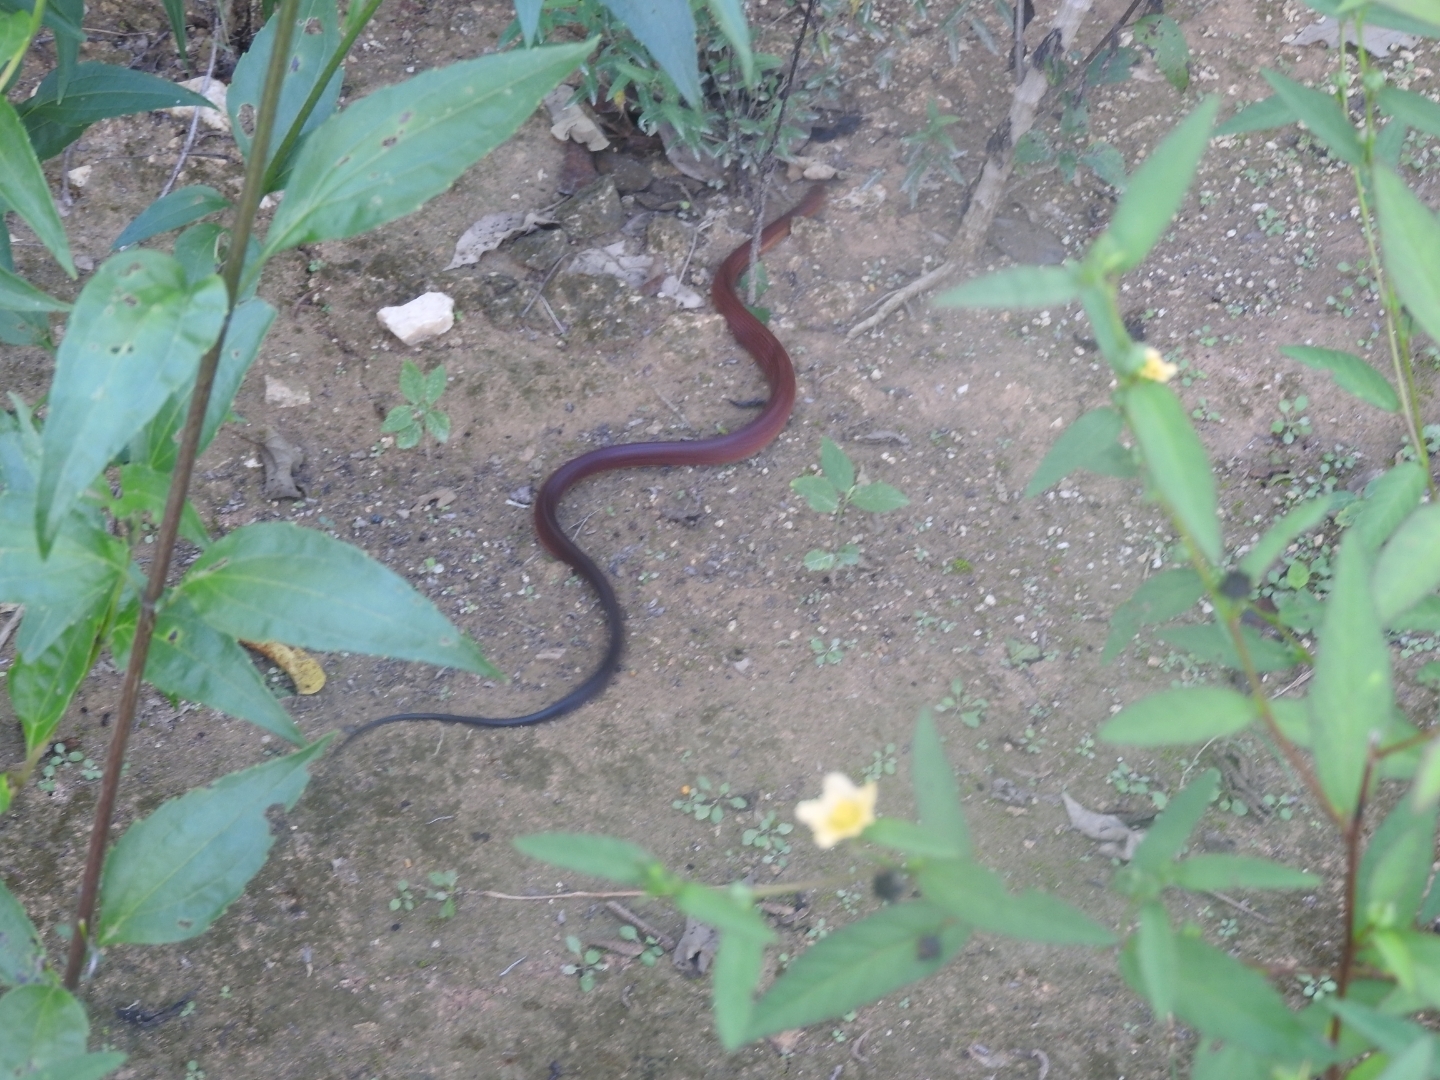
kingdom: Animalia
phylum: Chordata
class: Squamata
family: Colubridae
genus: Drymarchon
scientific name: Drymarchon melanurus
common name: Central american indigo snake
